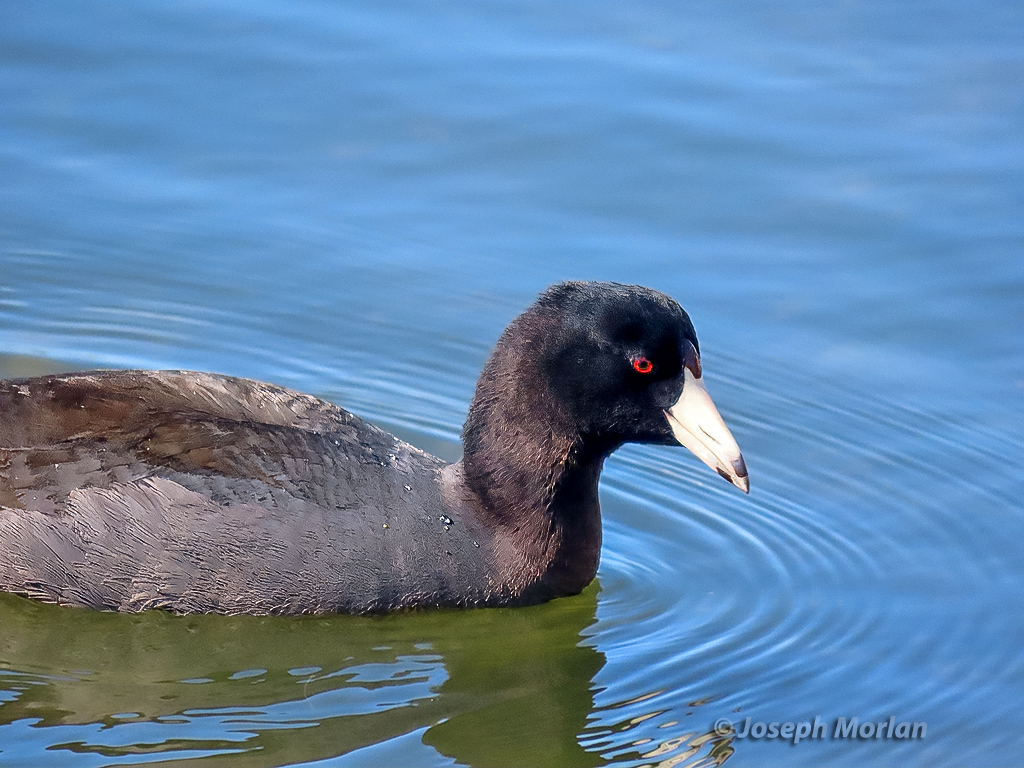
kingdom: Animalia
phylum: Chordata
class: Aves
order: Gruiformes
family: Rallidae
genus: Fulica
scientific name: Fulica americana
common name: American coot
